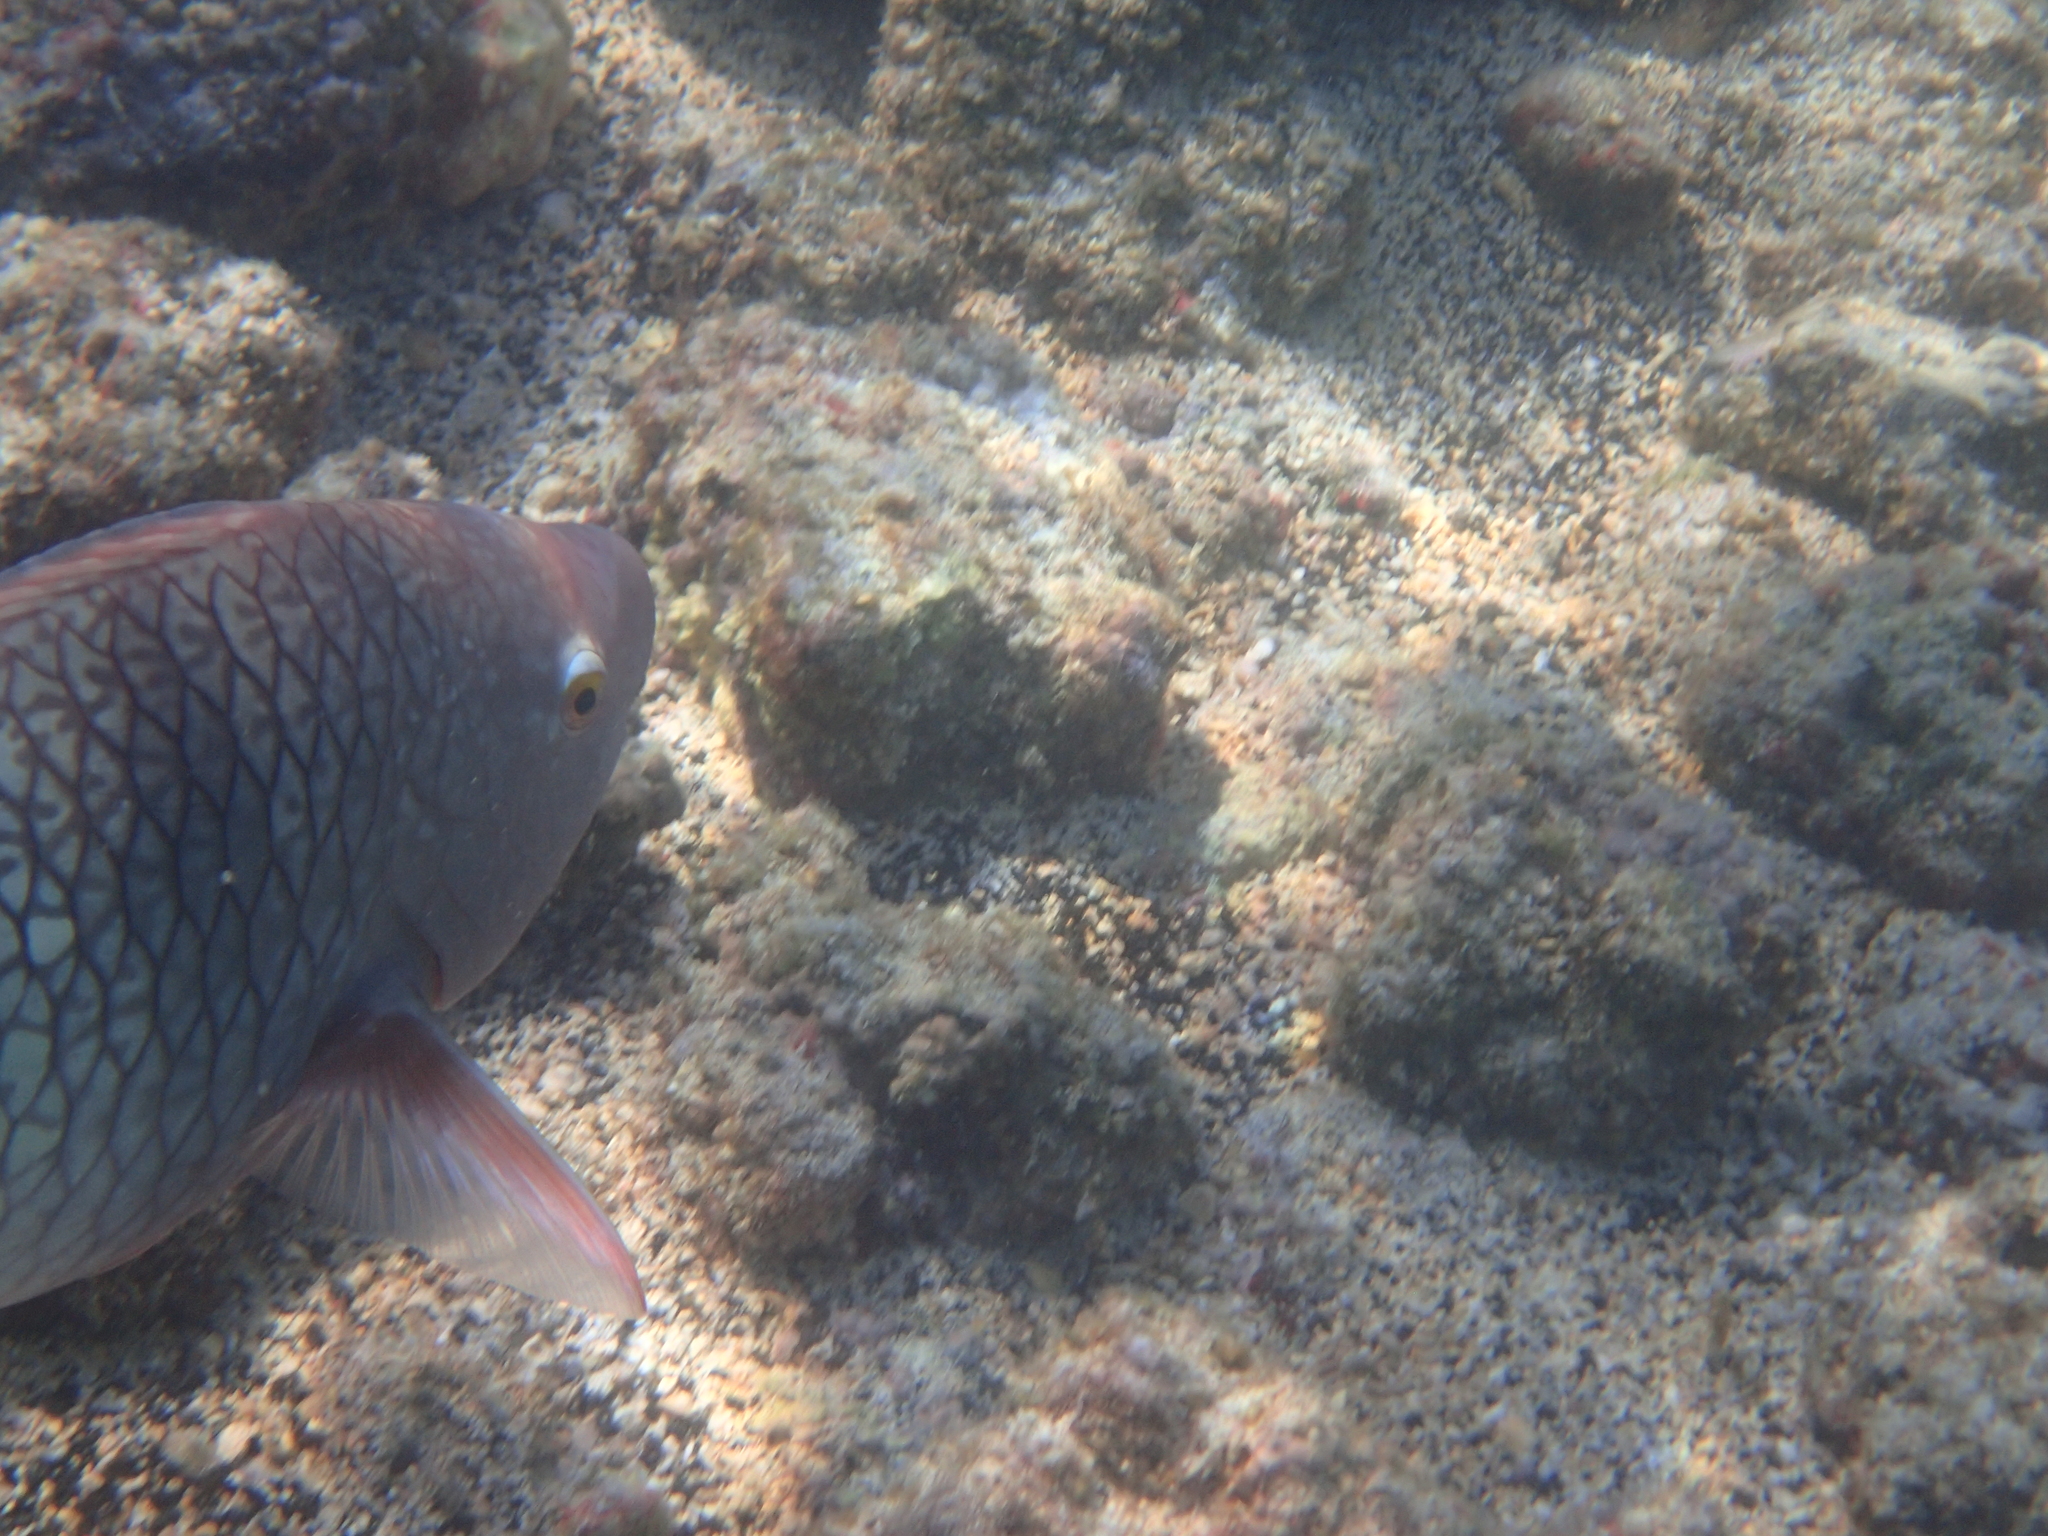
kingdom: Animalia
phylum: Chordata
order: Perciformes
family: Scaridae
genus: Scarus
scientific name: Scarus rubroviolaceus
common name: Ember parrotfish
